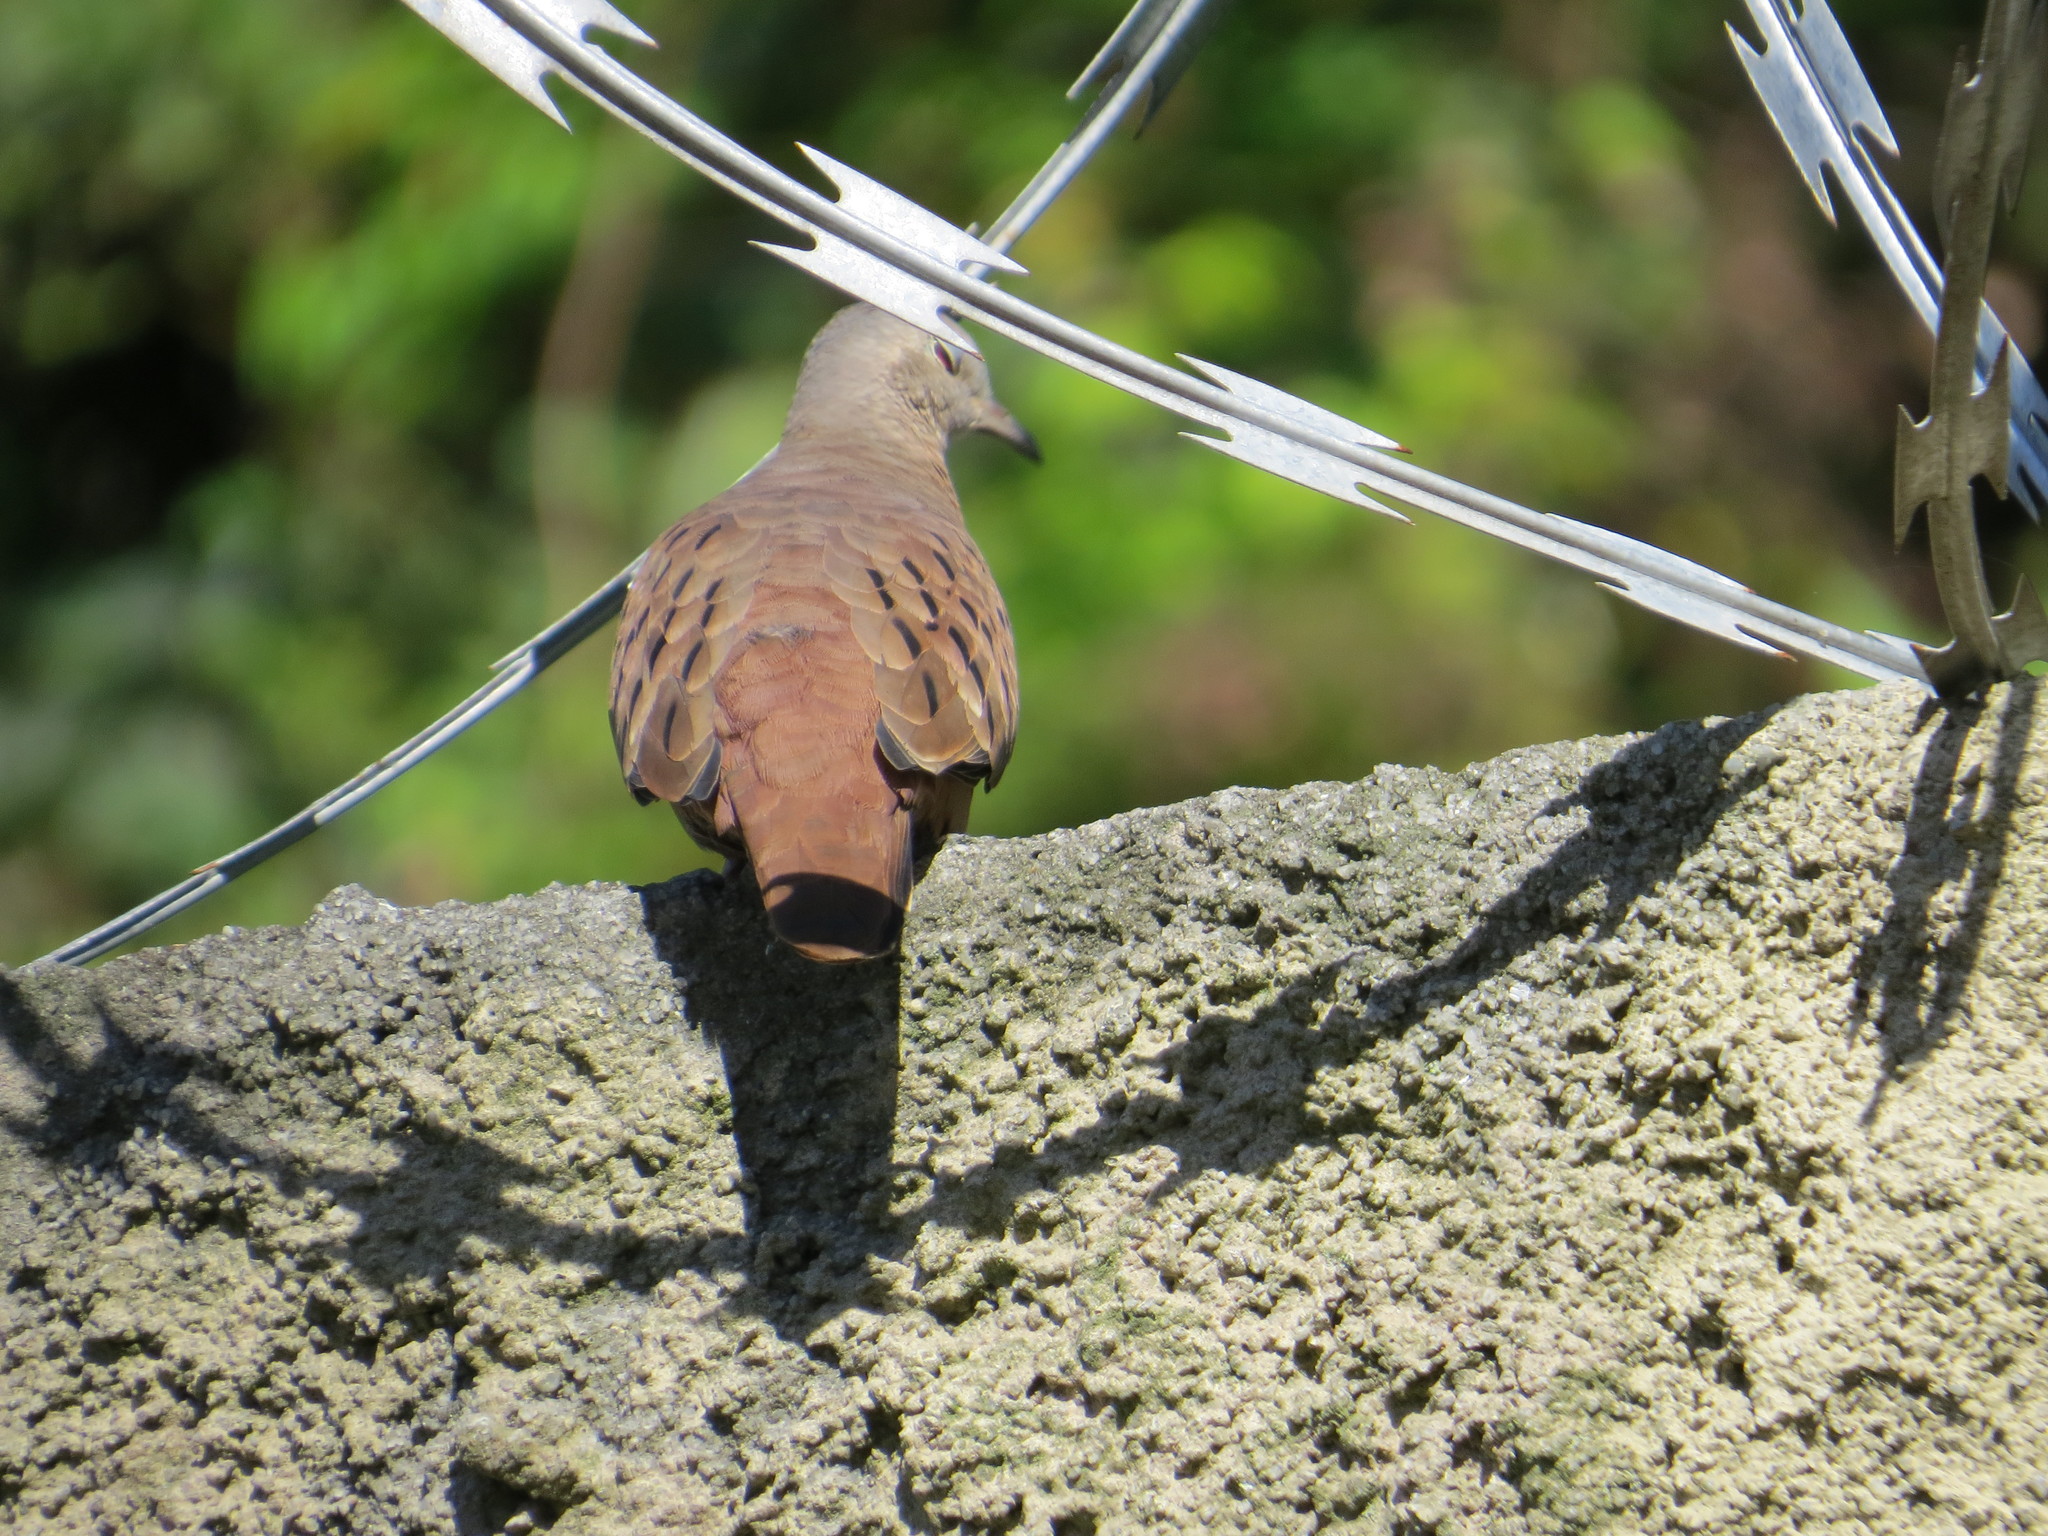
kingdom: Animalia
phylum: Chordata
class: Aves
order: Columbiformes
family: Columbidae
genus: Columbina
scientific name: Columbina talpacoti
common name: Ruddy ground dove
